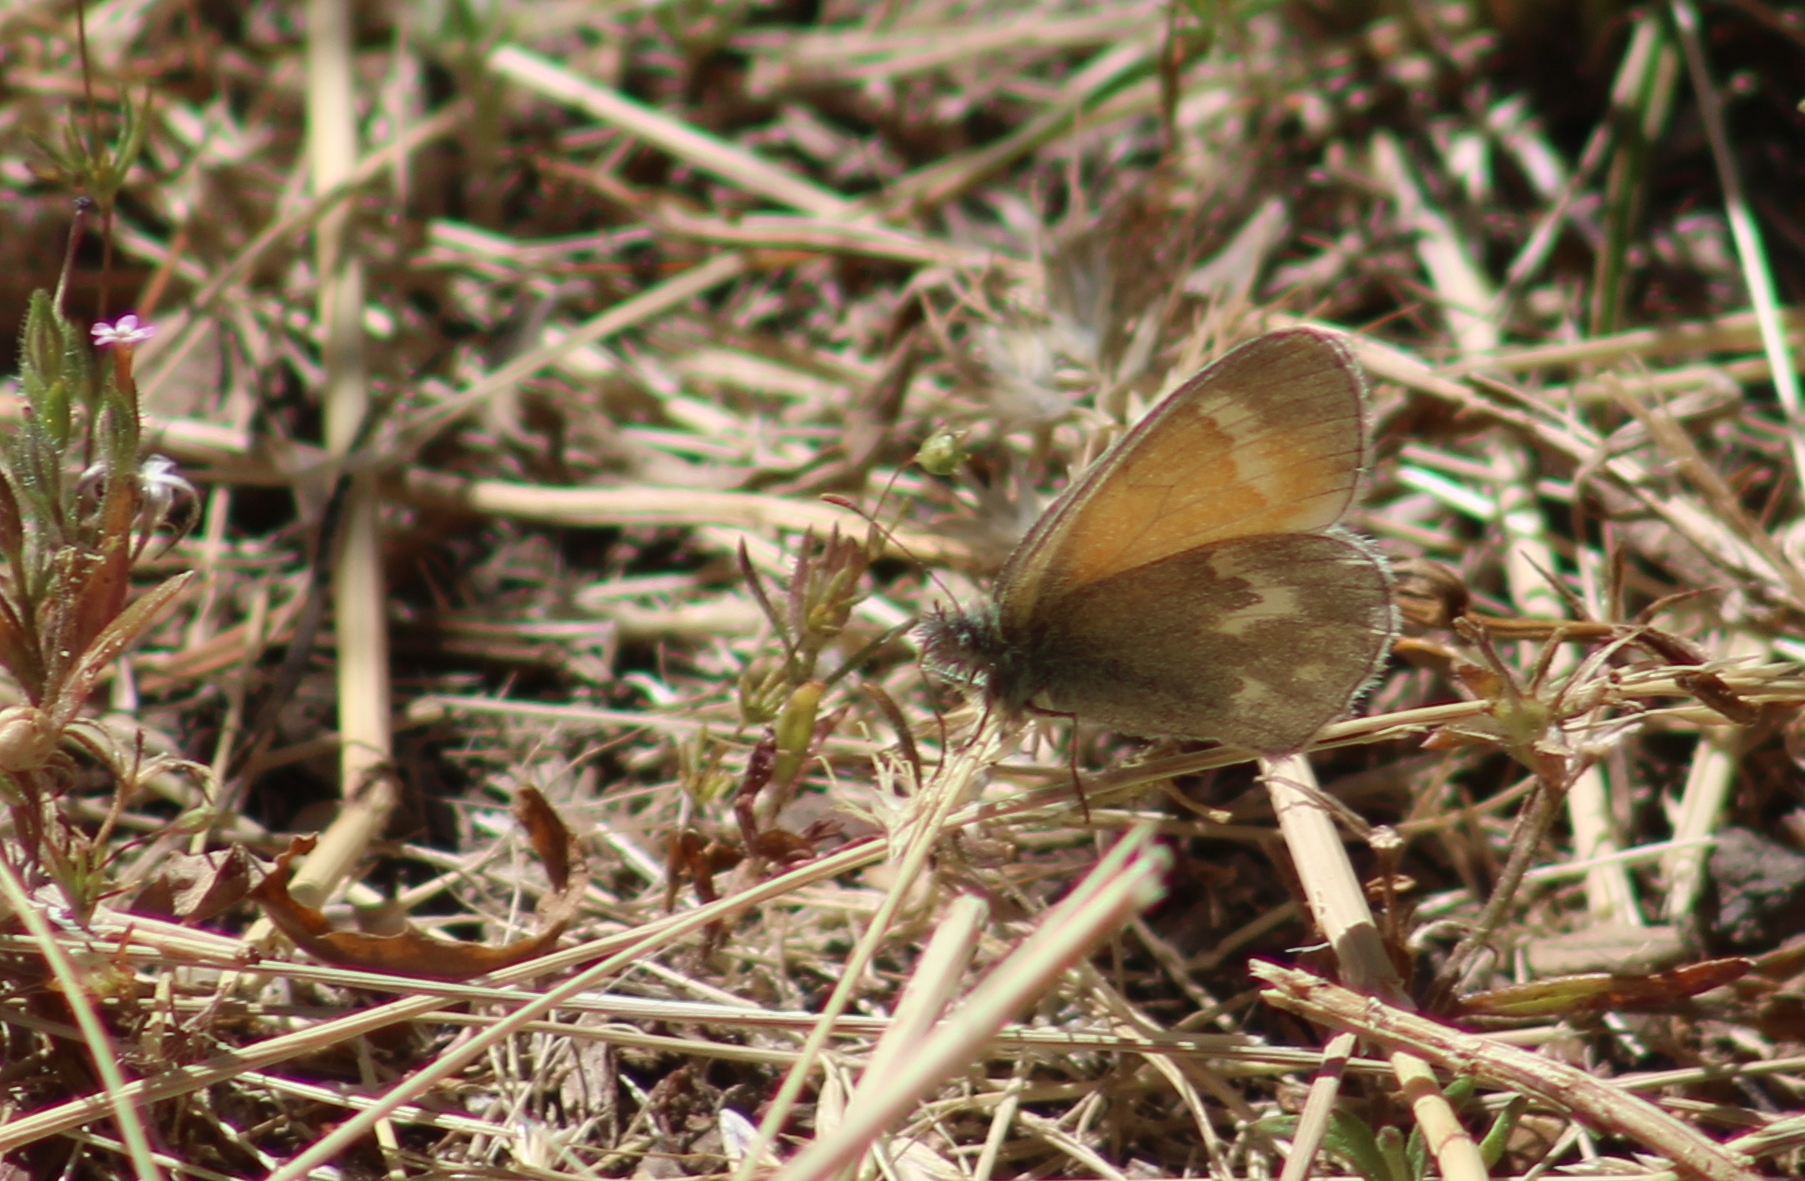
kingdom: Animalia
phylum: Arthropoda
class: Insecta
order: Lepidoptera
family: Nymphalidae
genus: Coenonympha
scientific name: Coenonympha california
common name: Common ringlet
